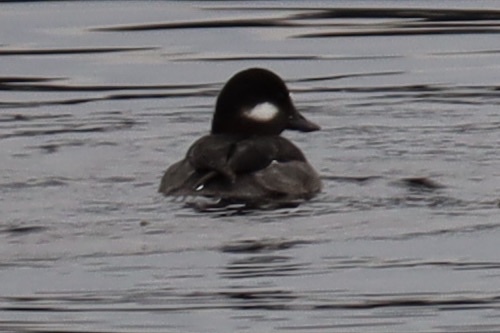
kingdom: Animalia
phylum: Chordata
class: Aves
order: Anseriformes
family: Anatidae
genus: Bucephala
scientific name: Bucephala albeola
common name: Bufflehead
